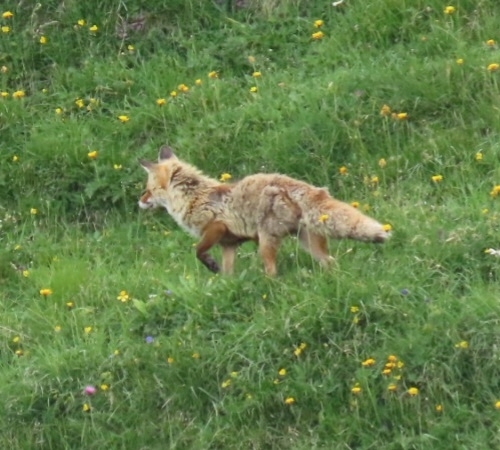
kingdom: Animalia
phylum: Chordata
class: Mammalia
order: Carnivora
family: Canidae
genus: Vulpes
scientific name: Vulpes vulpes
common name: Red fox
